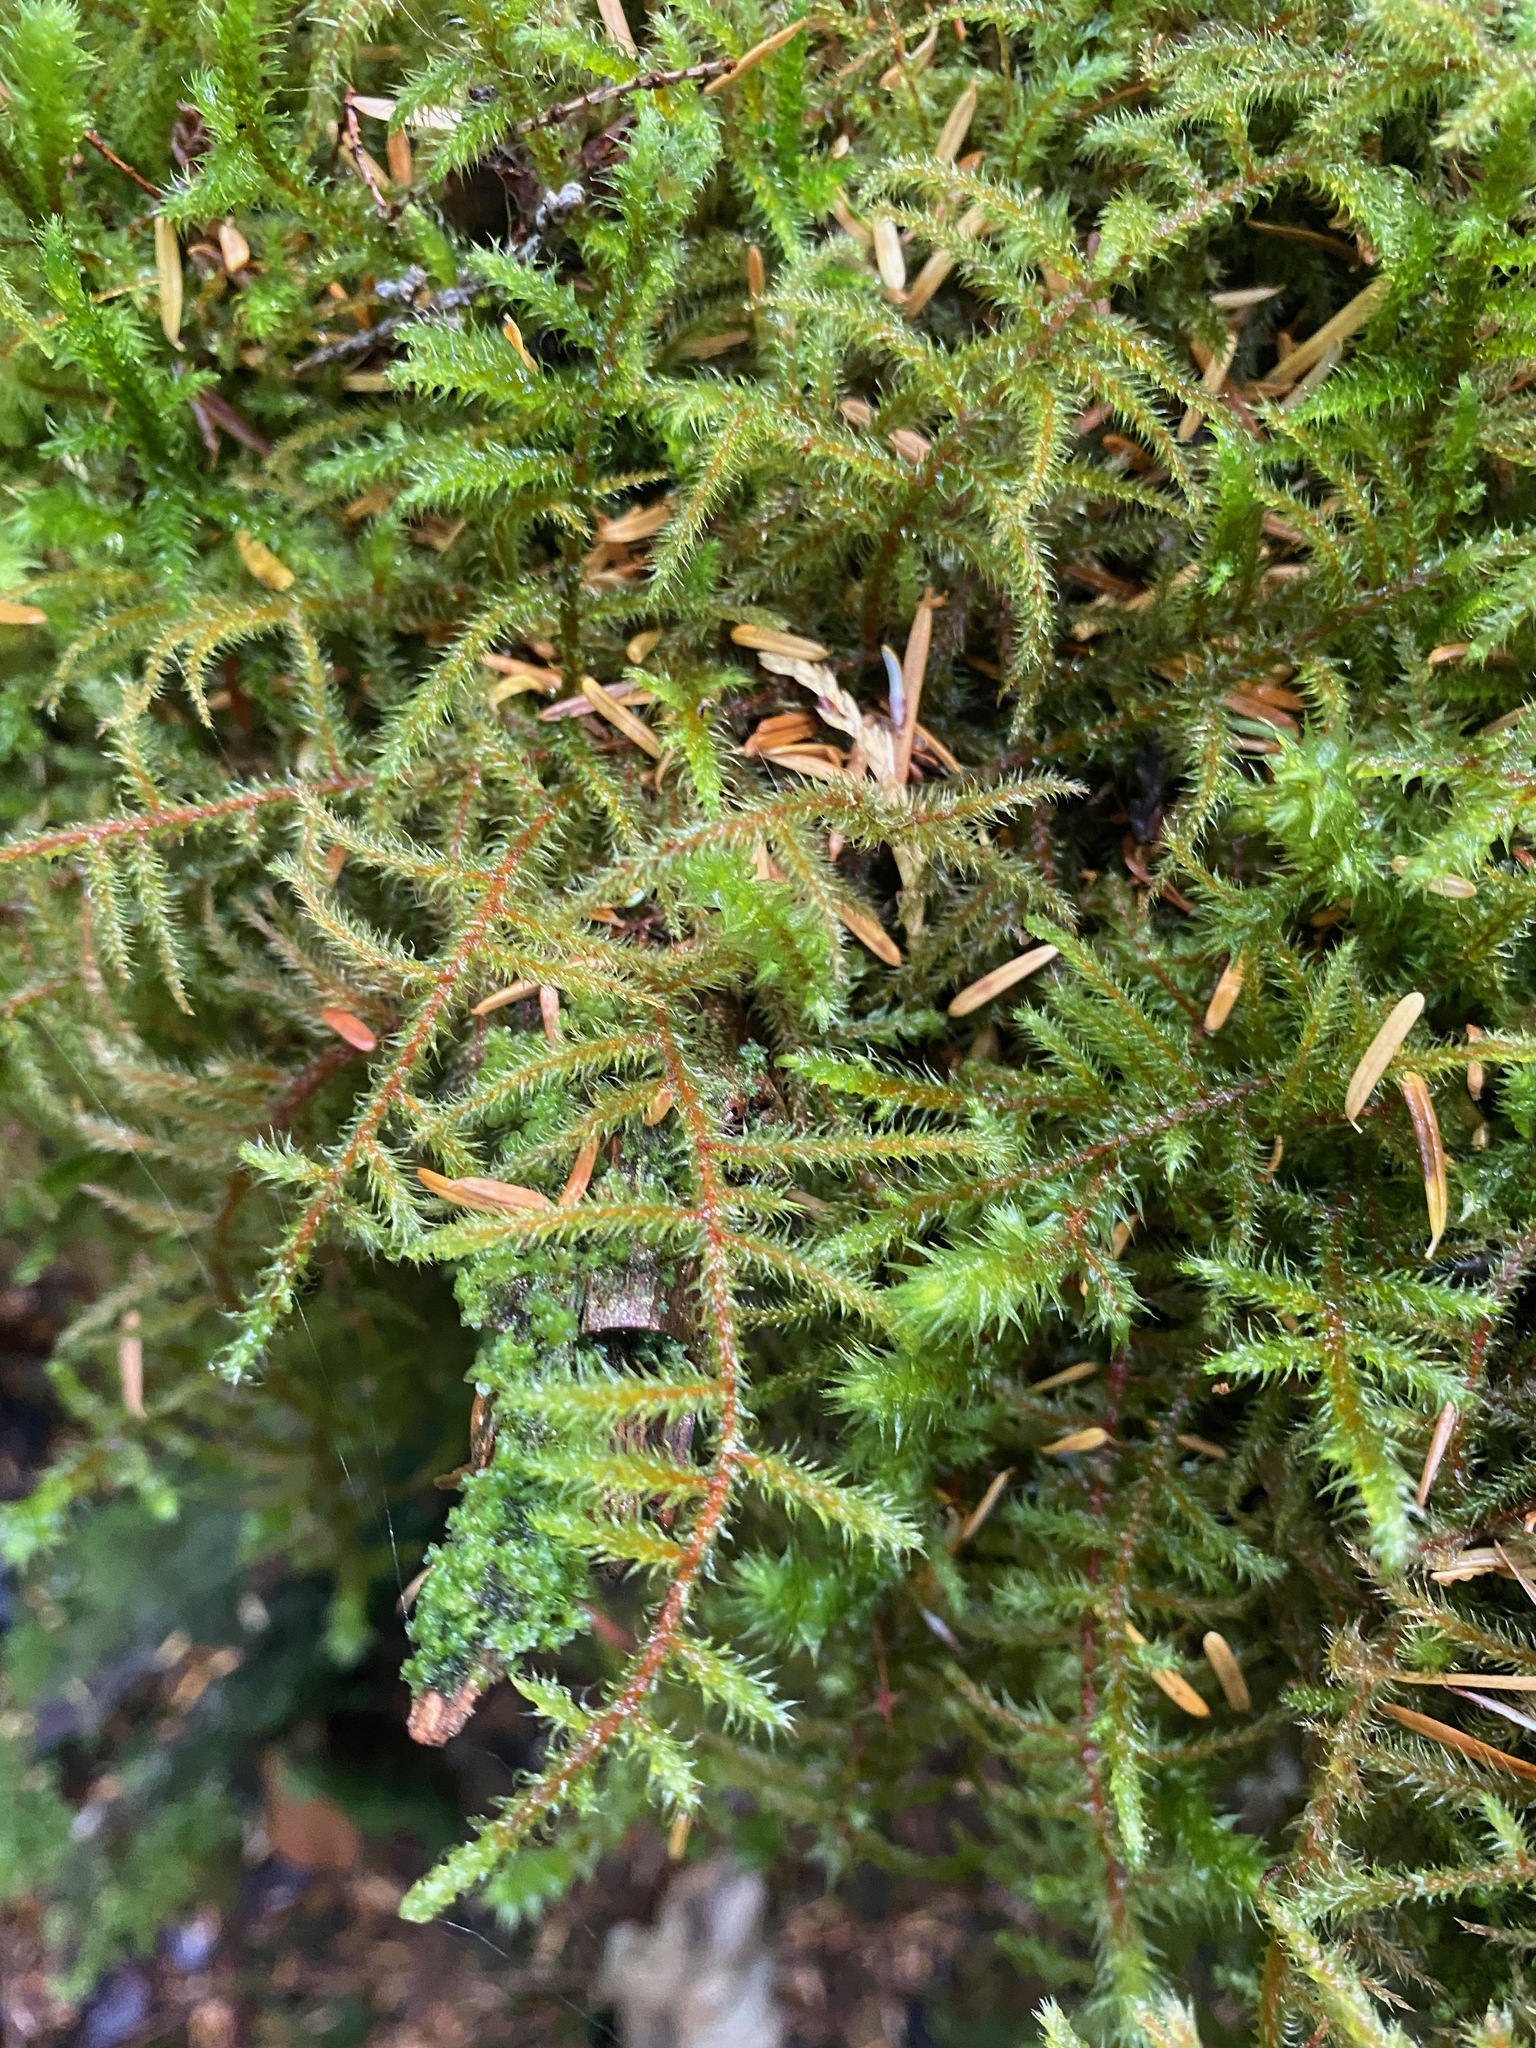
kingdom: Plantae
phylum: Bryophyta
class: Bryopsida
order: Hypnales
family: Hylocomiaceae
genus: Rhytidiadelphus
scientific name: Rhytidiadelphus loreus
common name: Lanky moss
